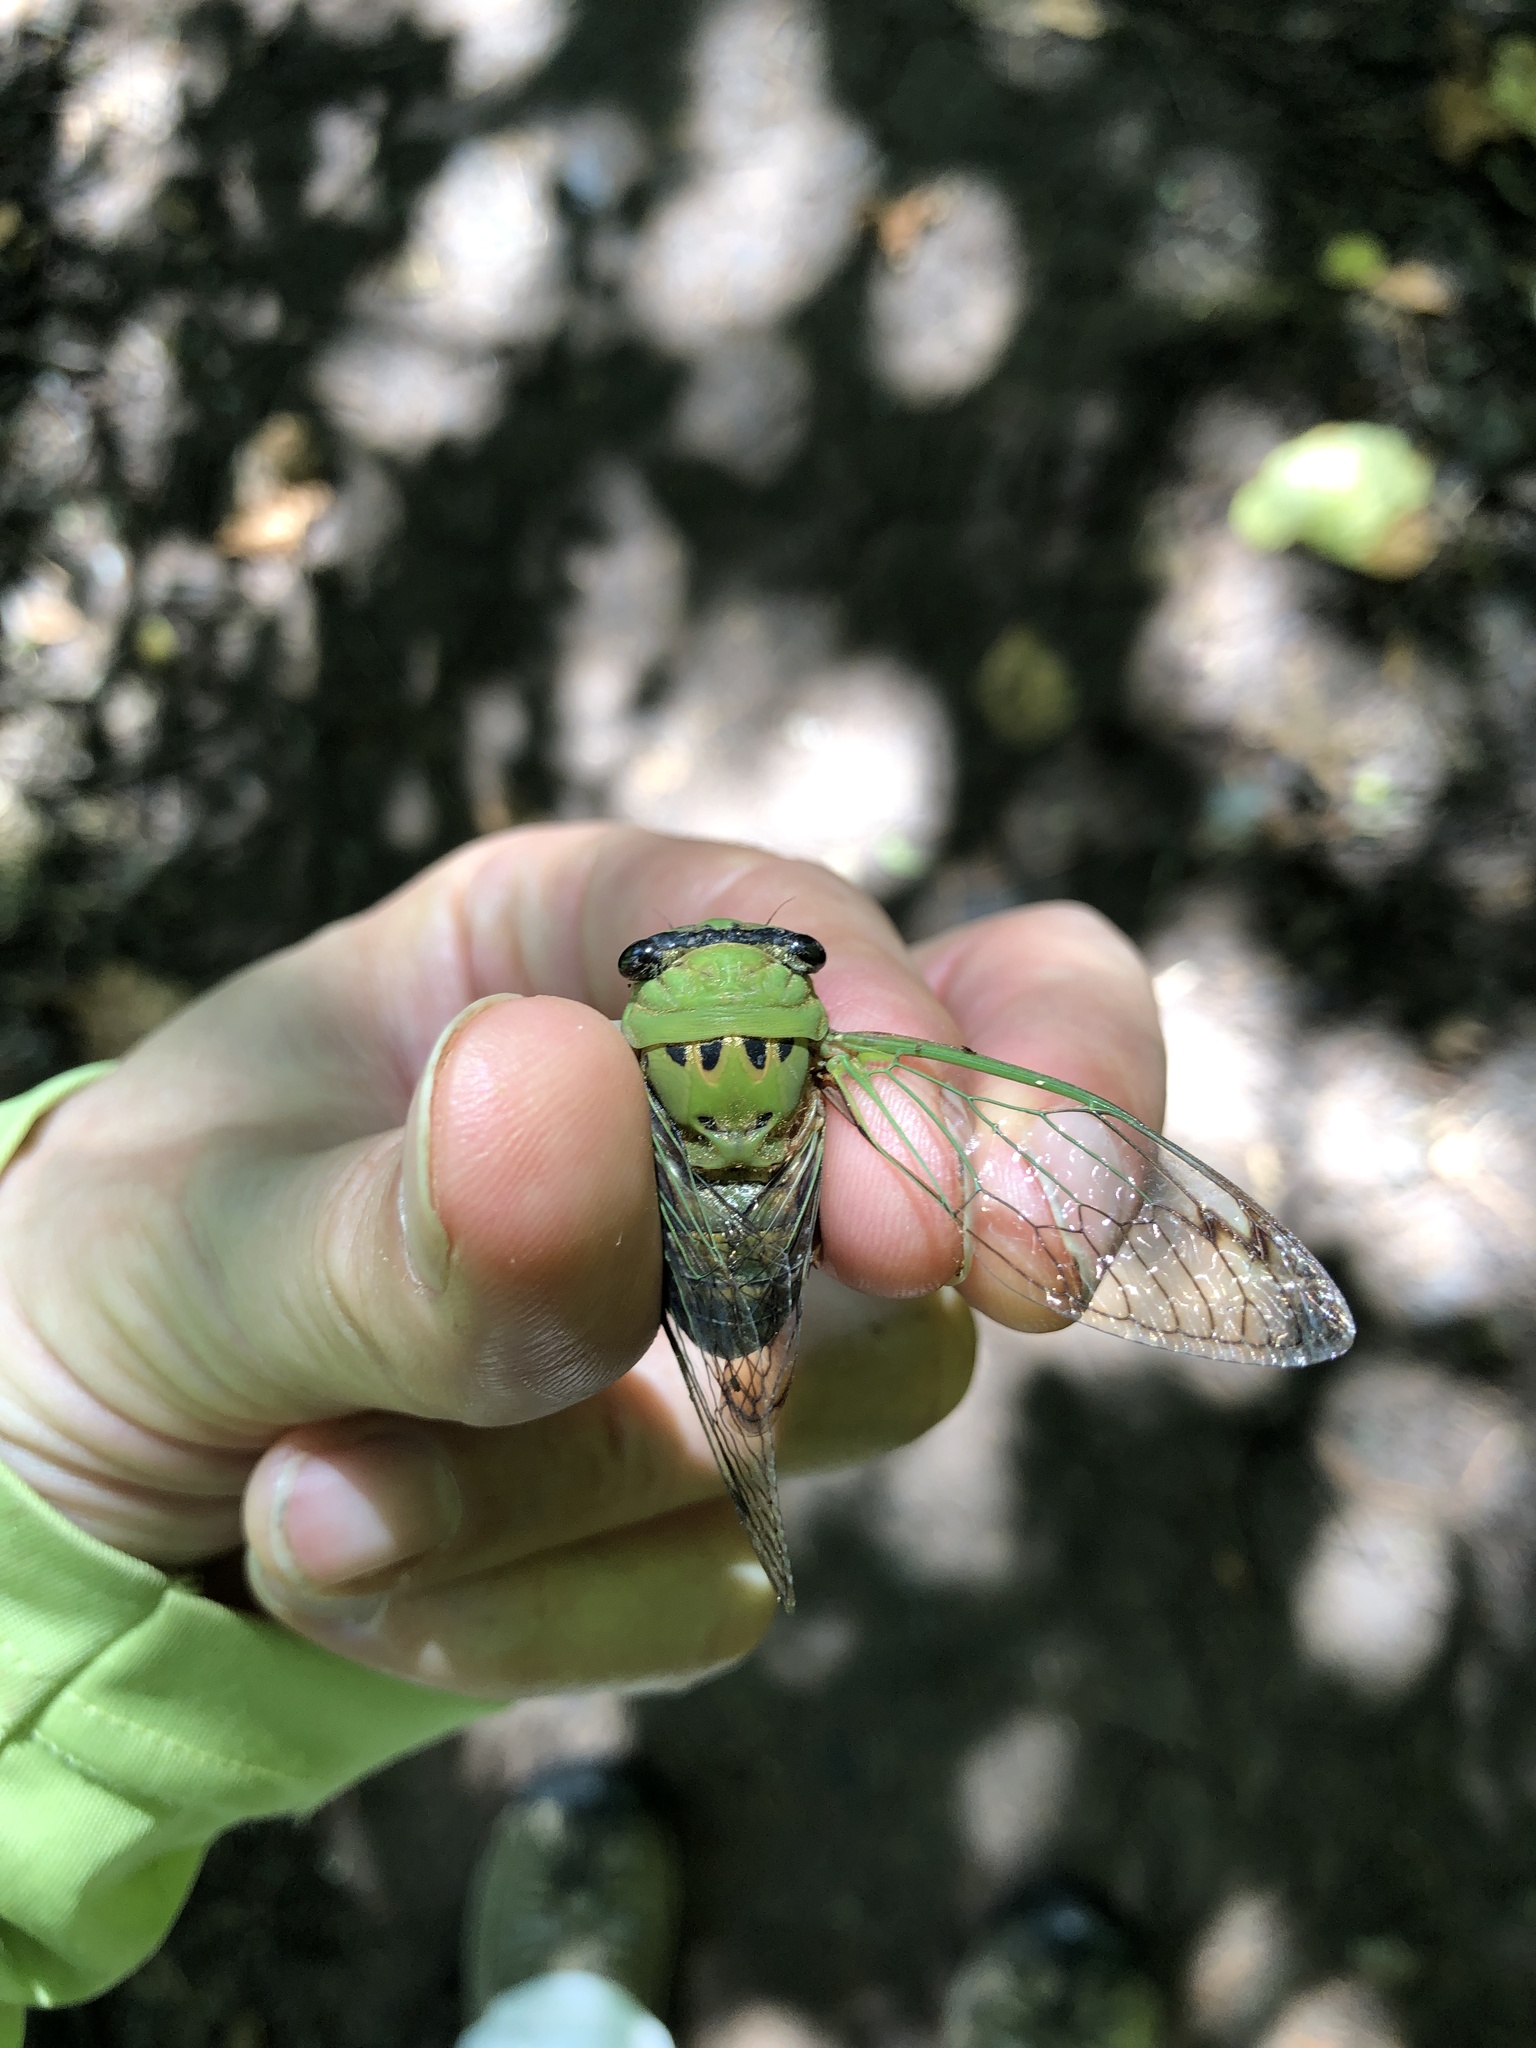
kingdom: Animalia
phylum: Arthropoda
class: Insecta
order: Hemiptera
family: Cicadidae
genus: Neotibicen
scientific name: Neotibicen superbus
